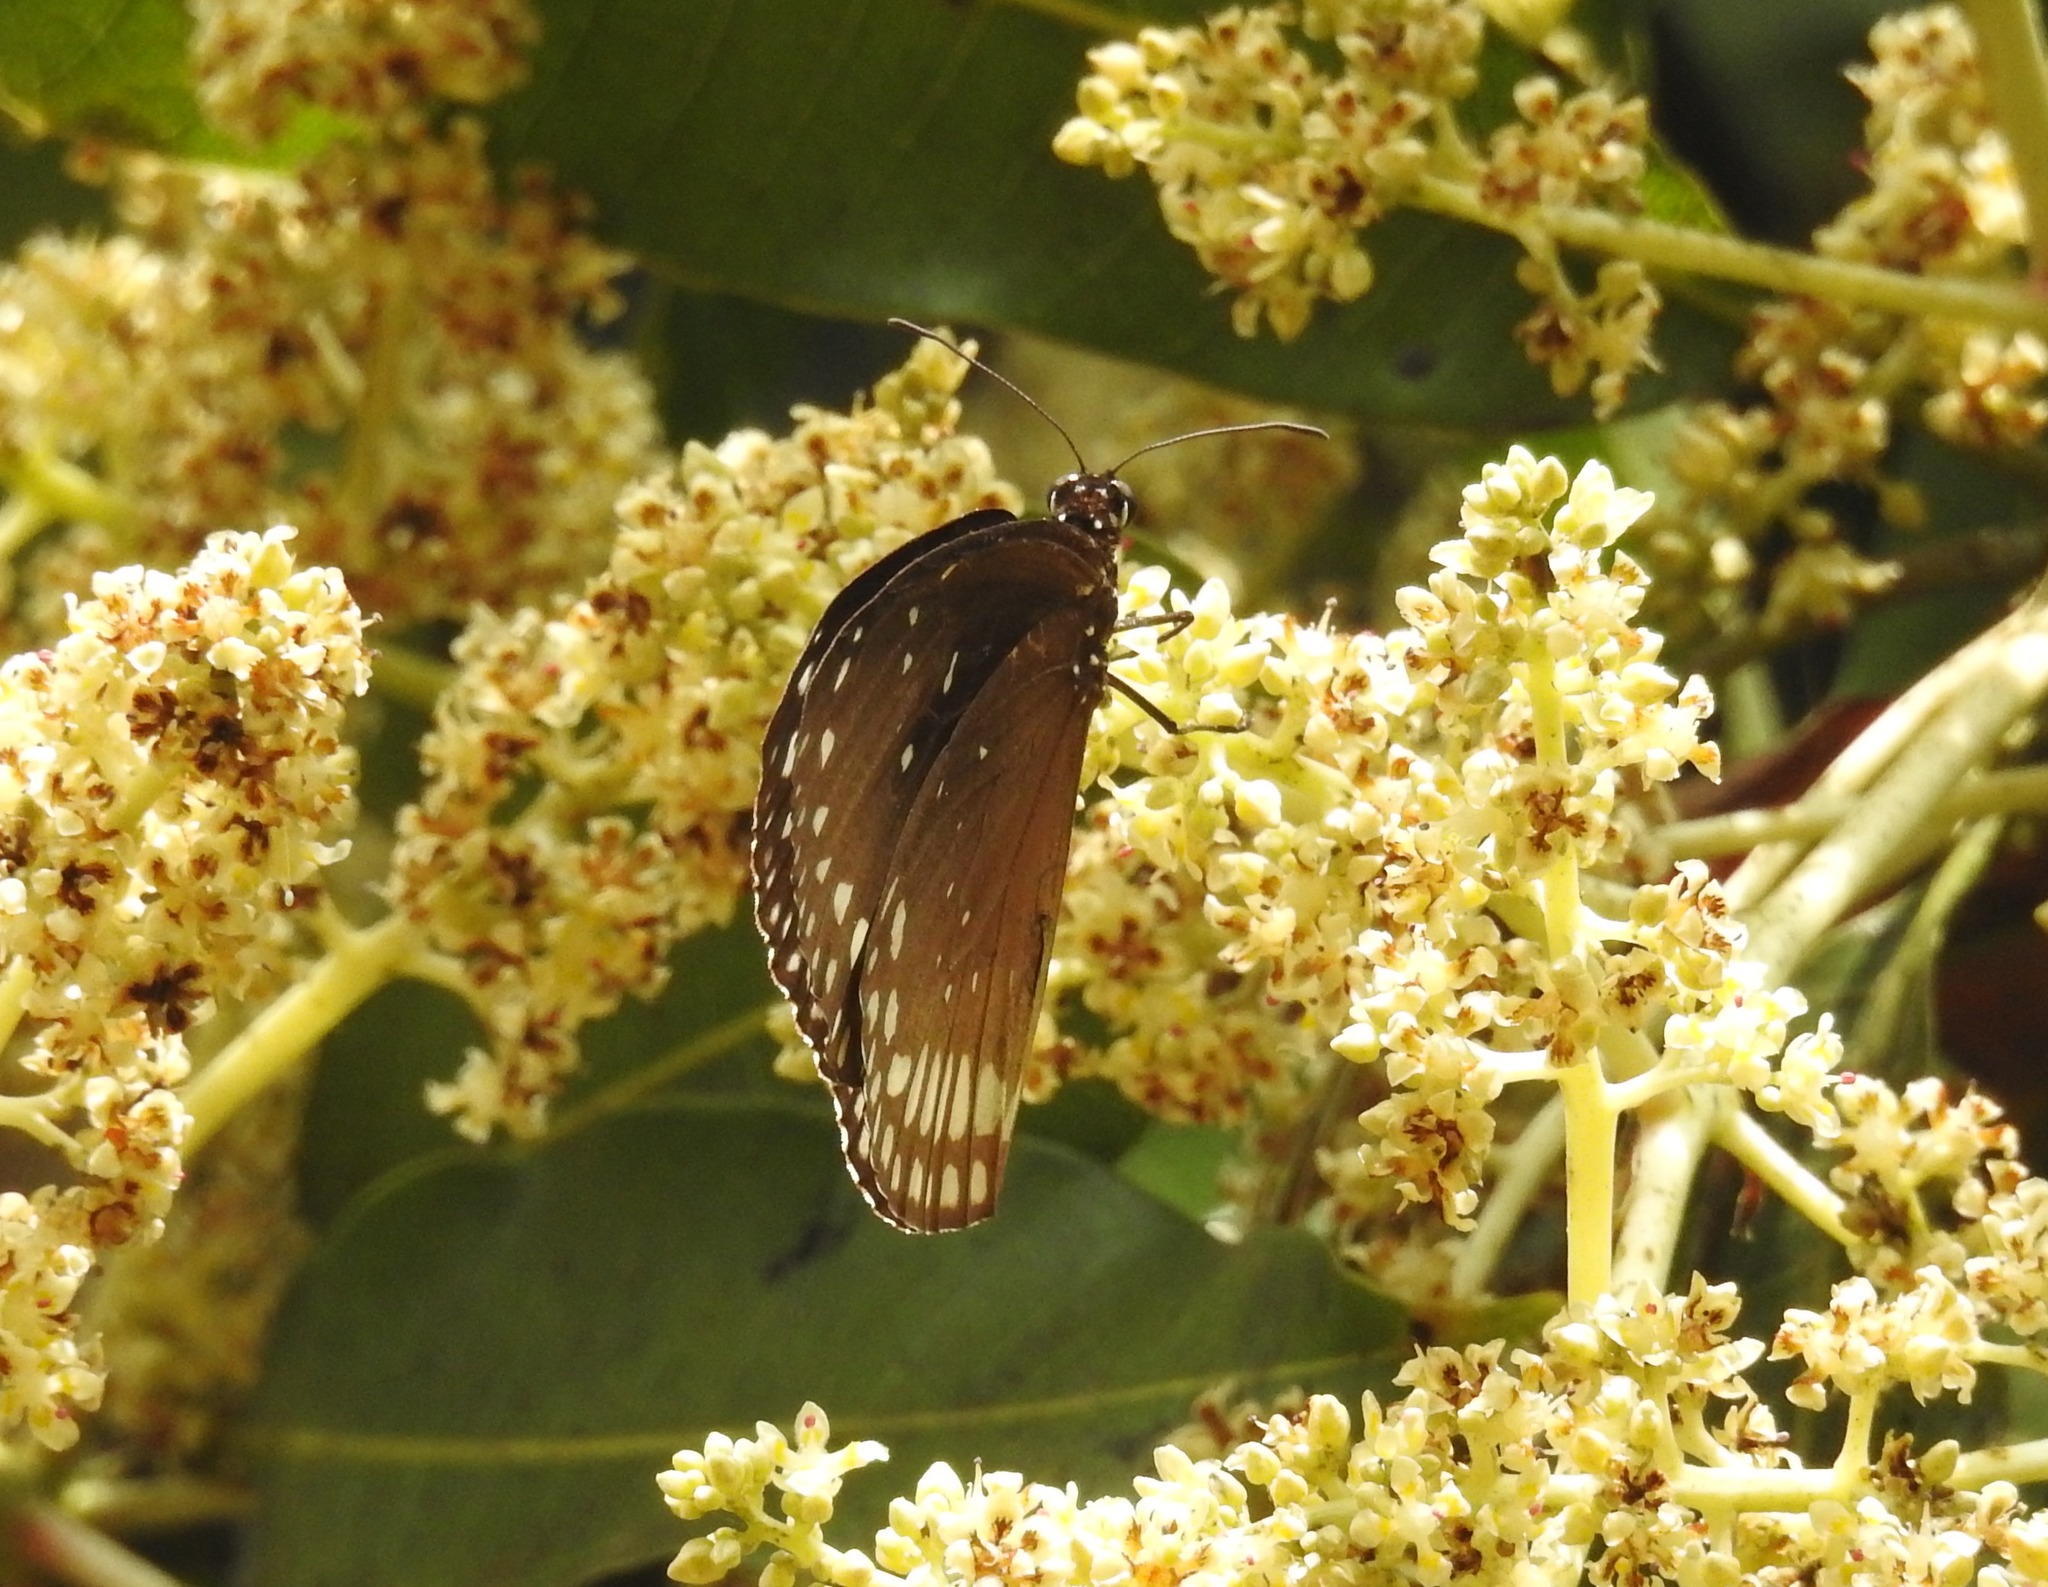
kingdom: Animalia
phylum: Arthropoda
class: Insecta
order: Lepidoptera
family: Nymphalidae
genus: Euploea
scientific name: Euploea sylvester
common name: Double-branded crow butterfly
